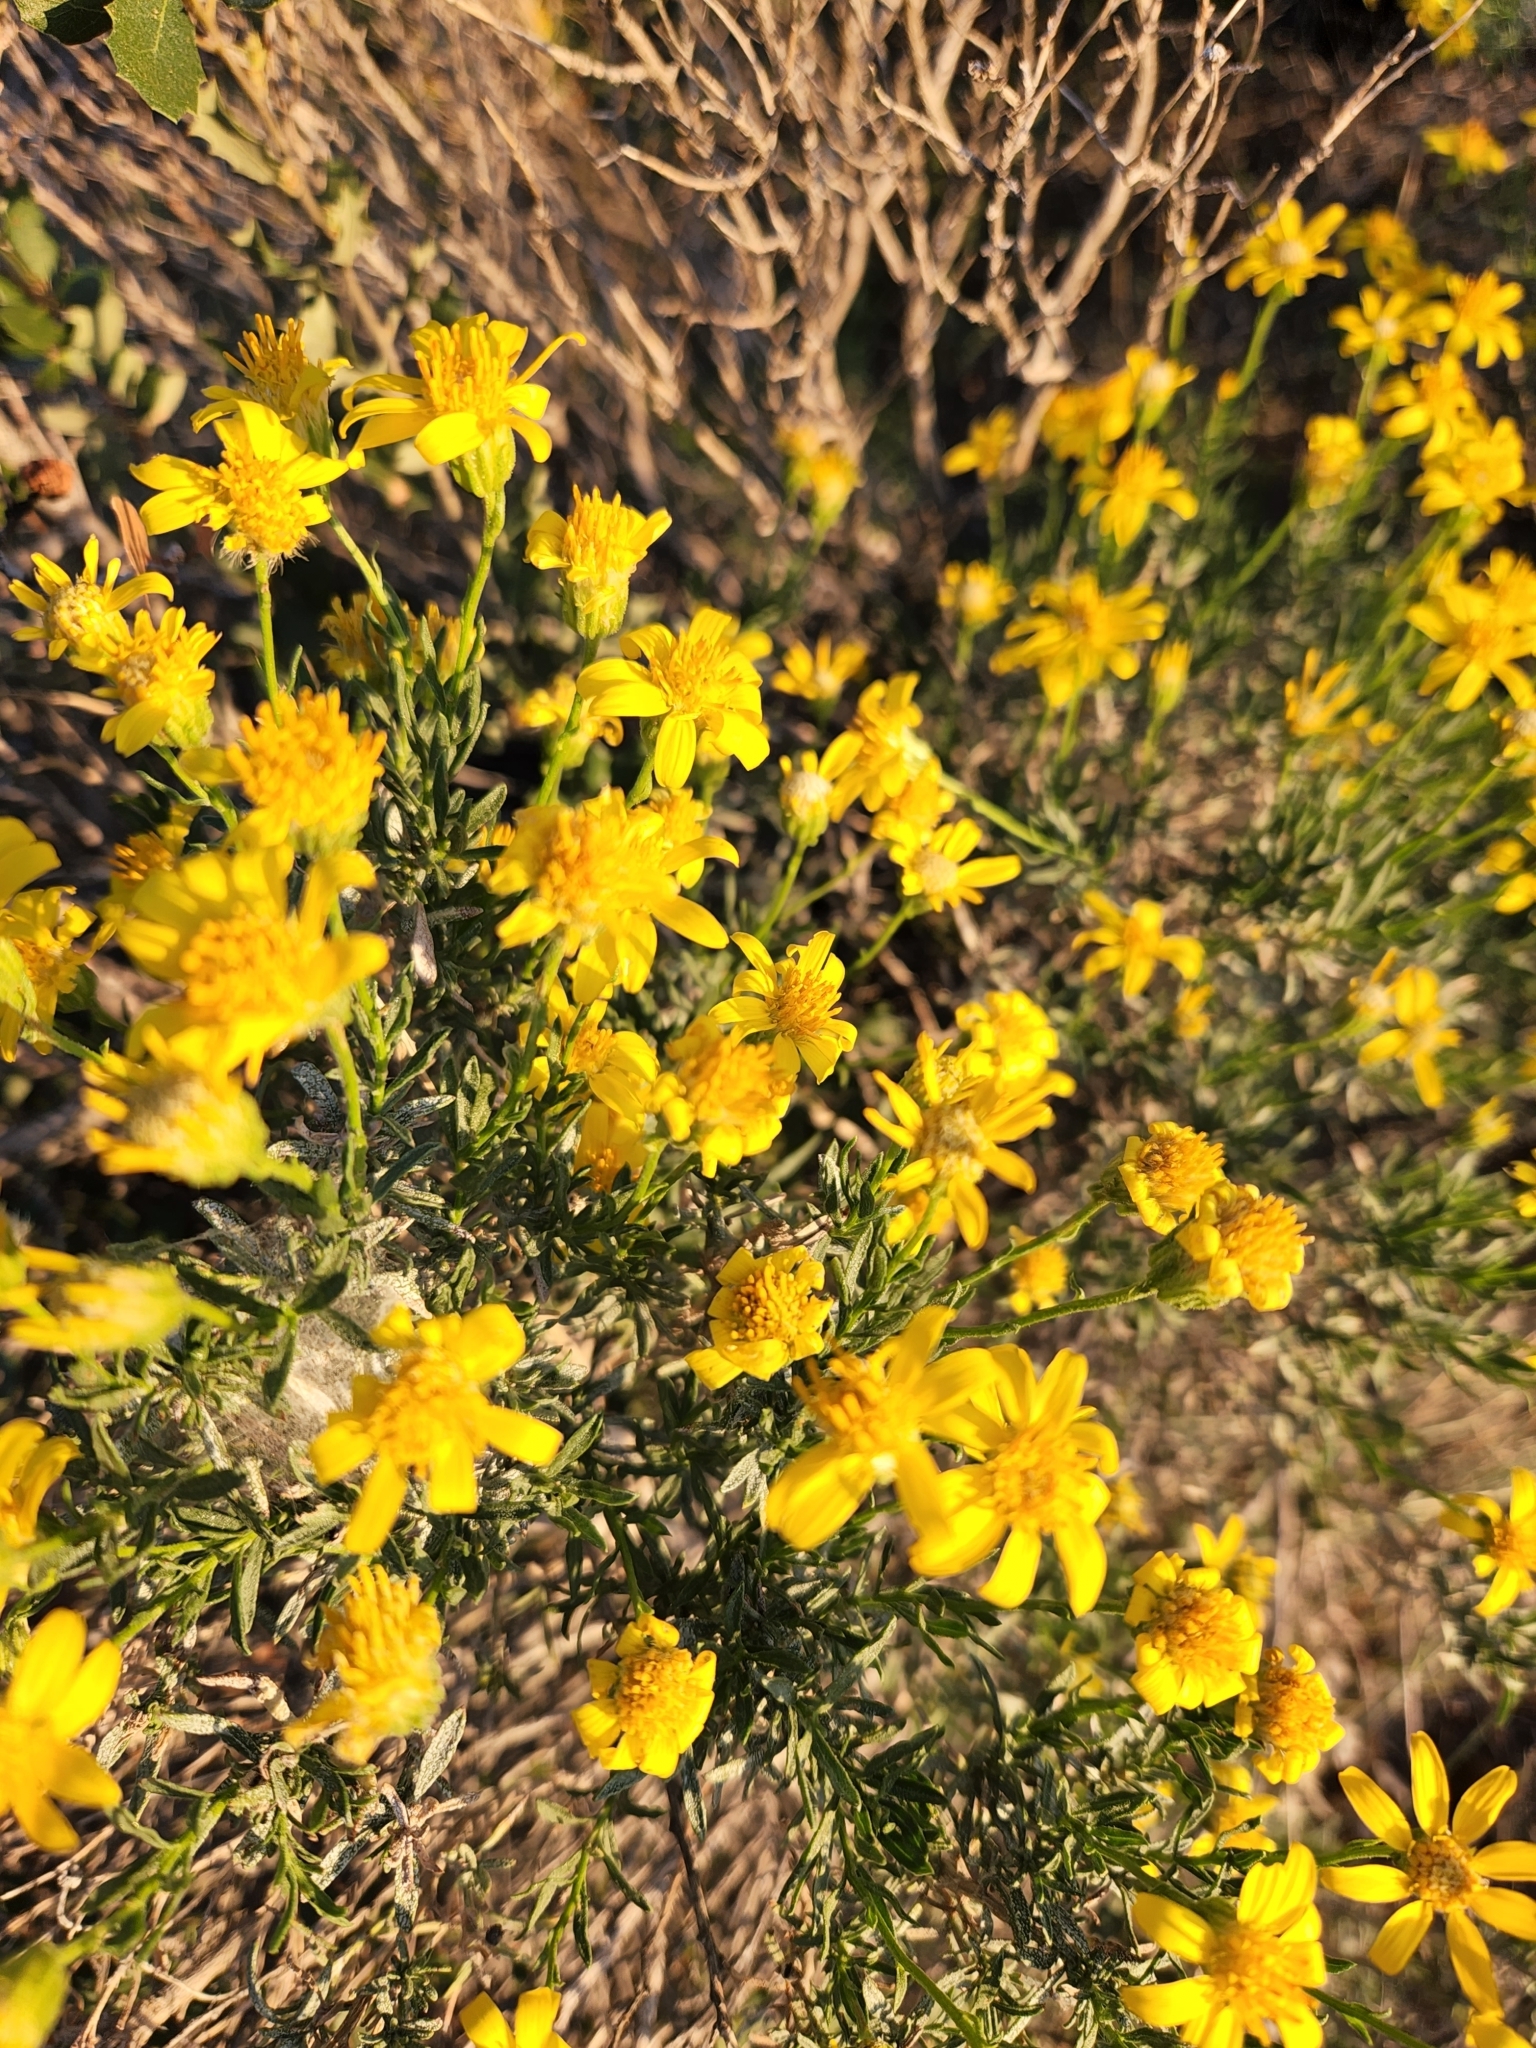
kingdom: Plantae
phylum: Tracheophyta
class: Magnoliopsida
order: Asterales
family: Asteraceae
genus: Ericameria
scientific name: Ericameria linearifolia
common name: Interior goldenbush
